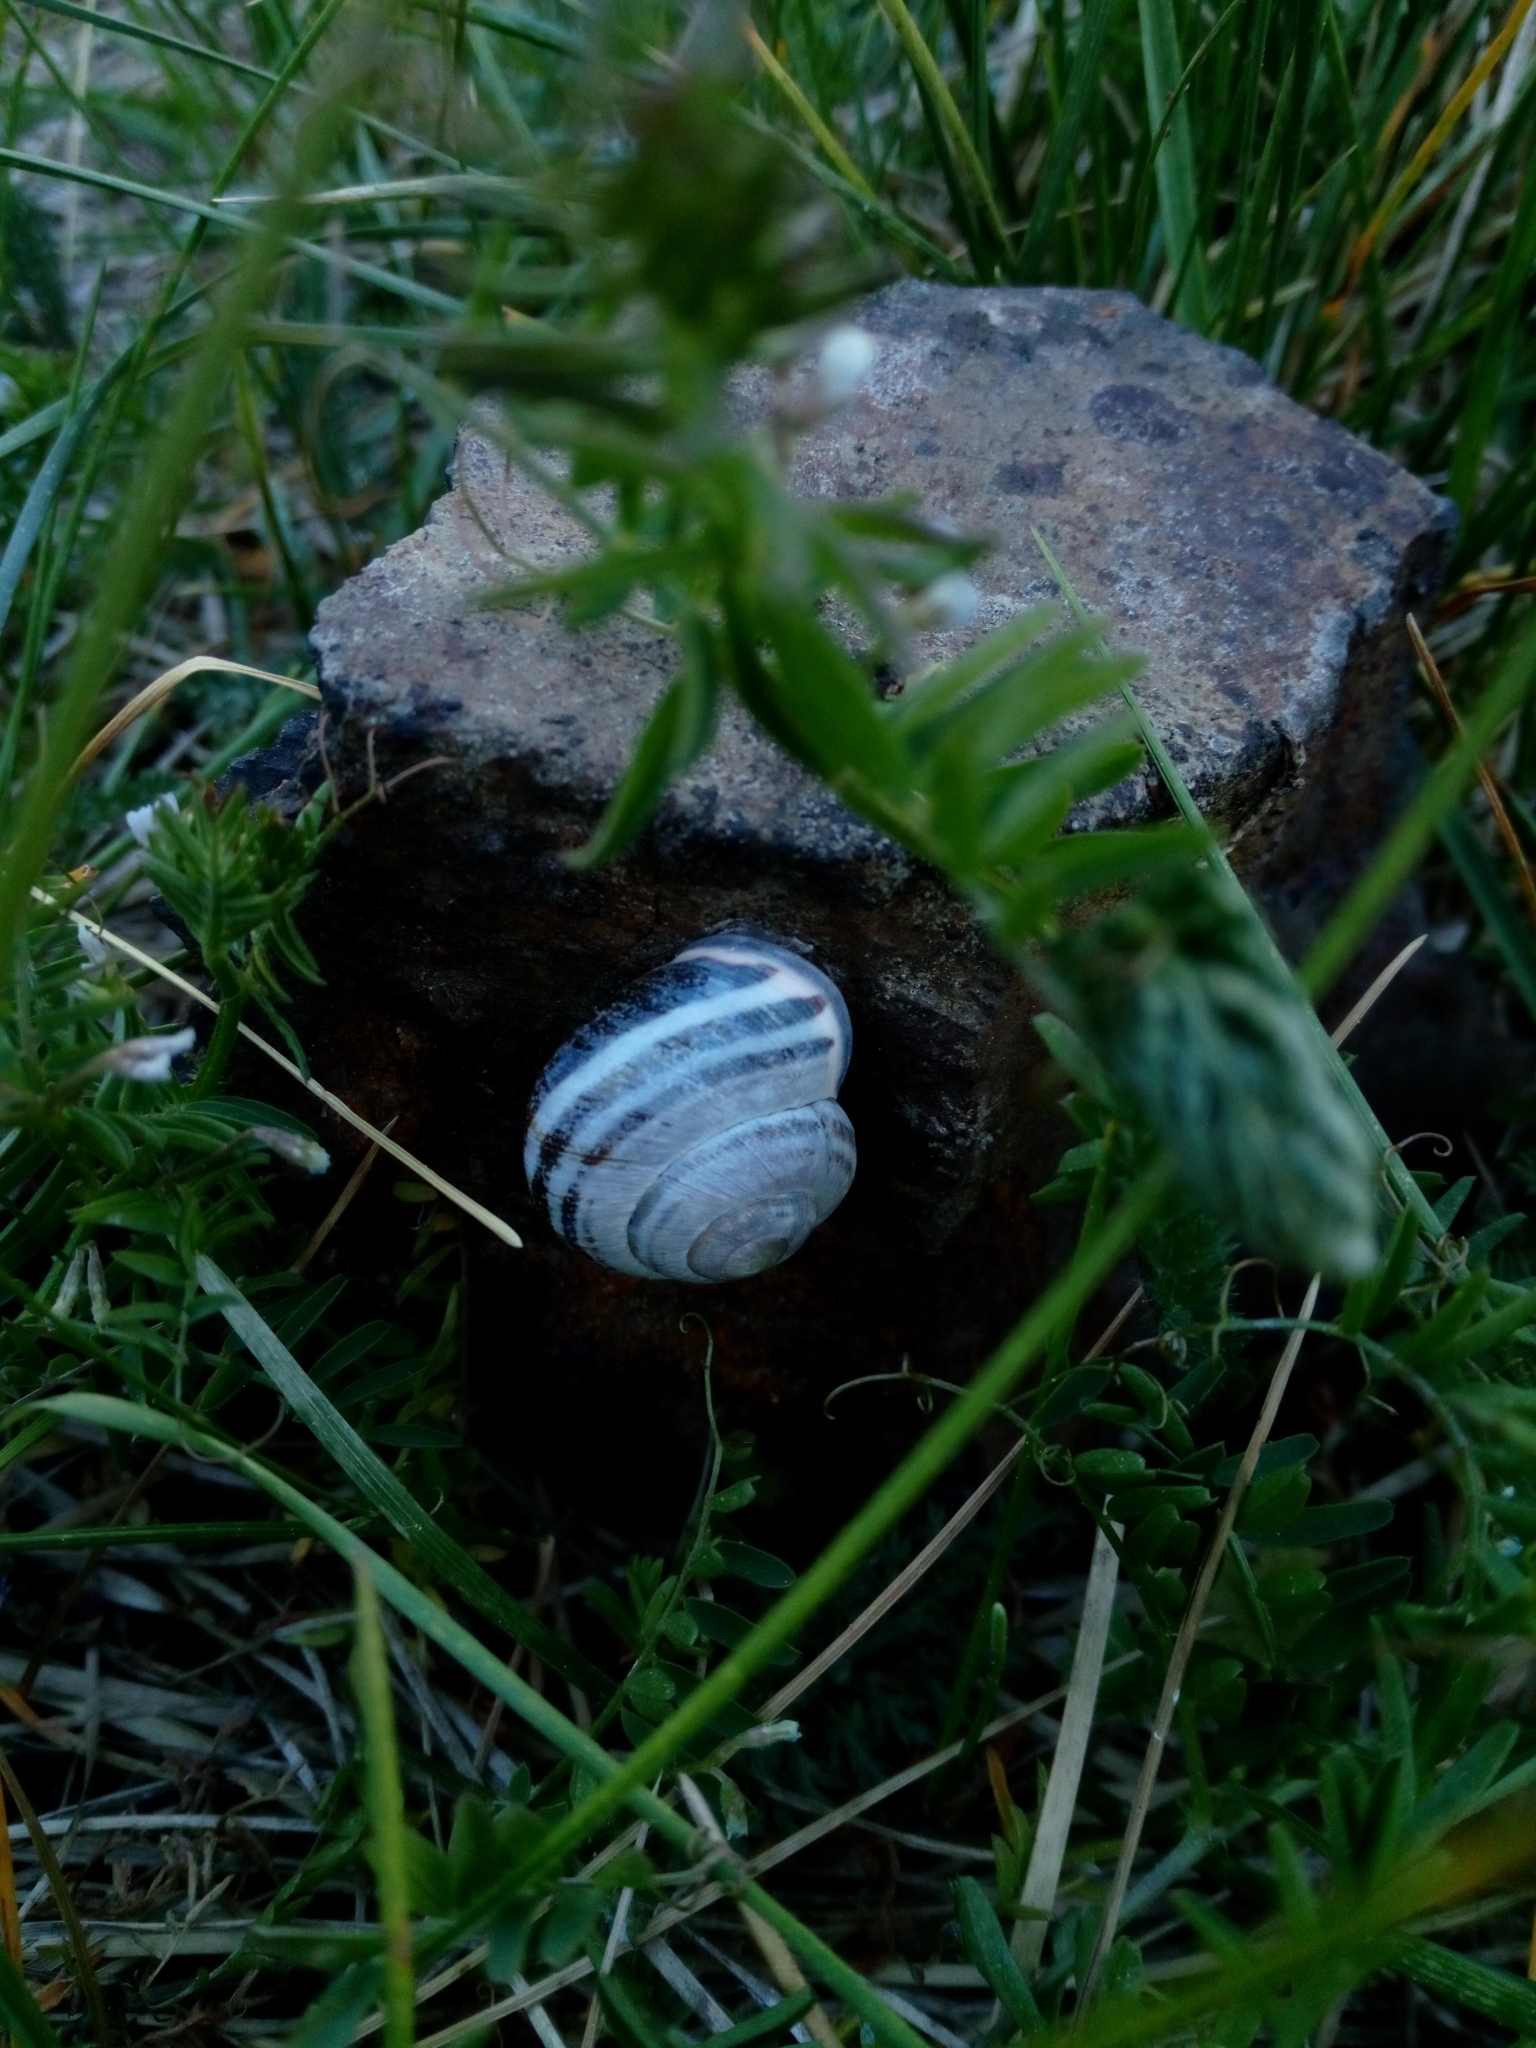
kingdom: Animalia
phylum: Mollusca
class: Gastropoda
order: Stylommatophora
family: Helicidae
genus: Cepaea
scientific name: Cepaea nemoralis
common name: Grovesnail
